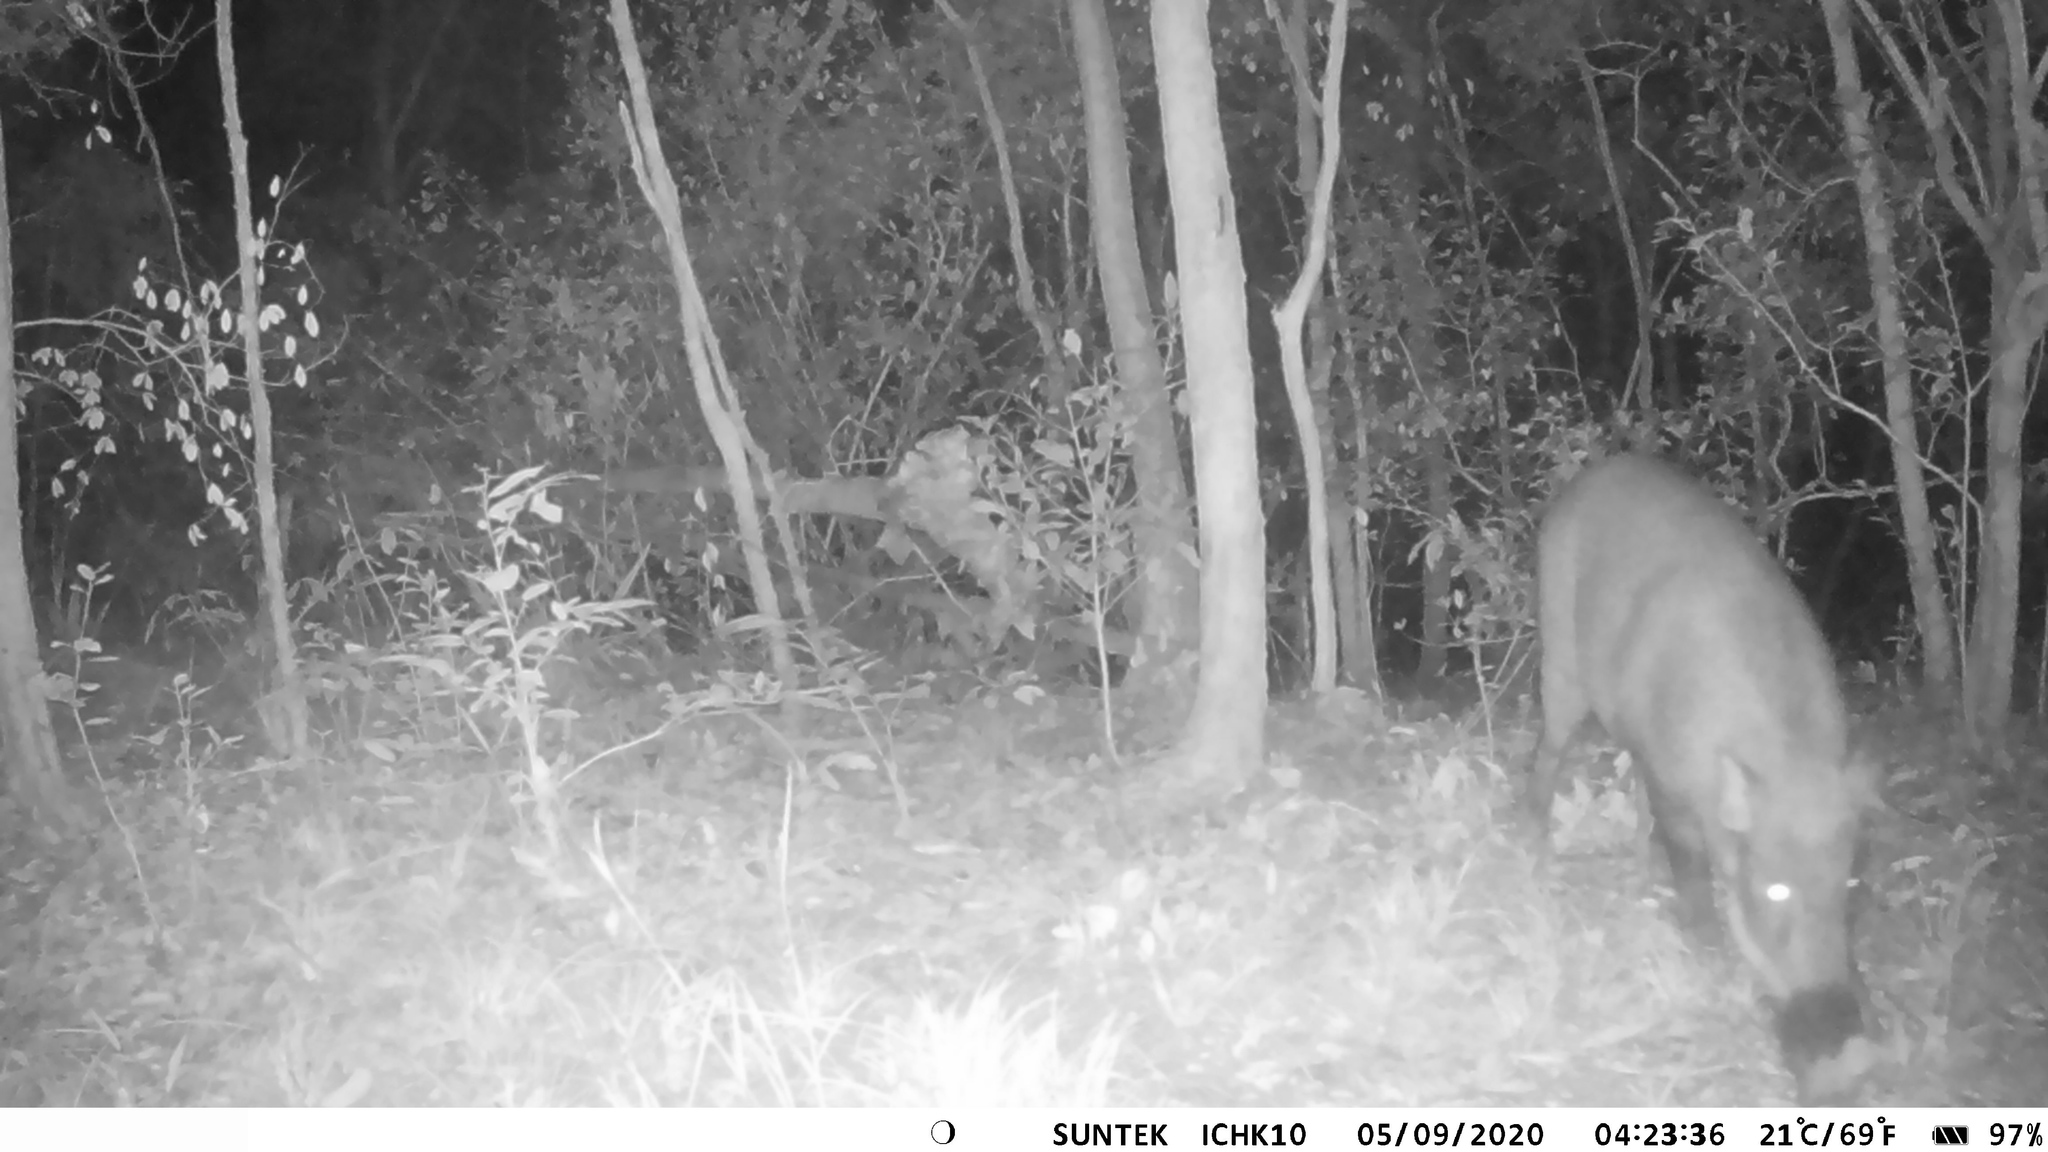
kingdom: Animalia
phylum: Chordata
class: Mammalia
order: Artiodactyla
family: Suidae
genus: Sus
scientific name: Sus scrofa
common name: Wild boar
